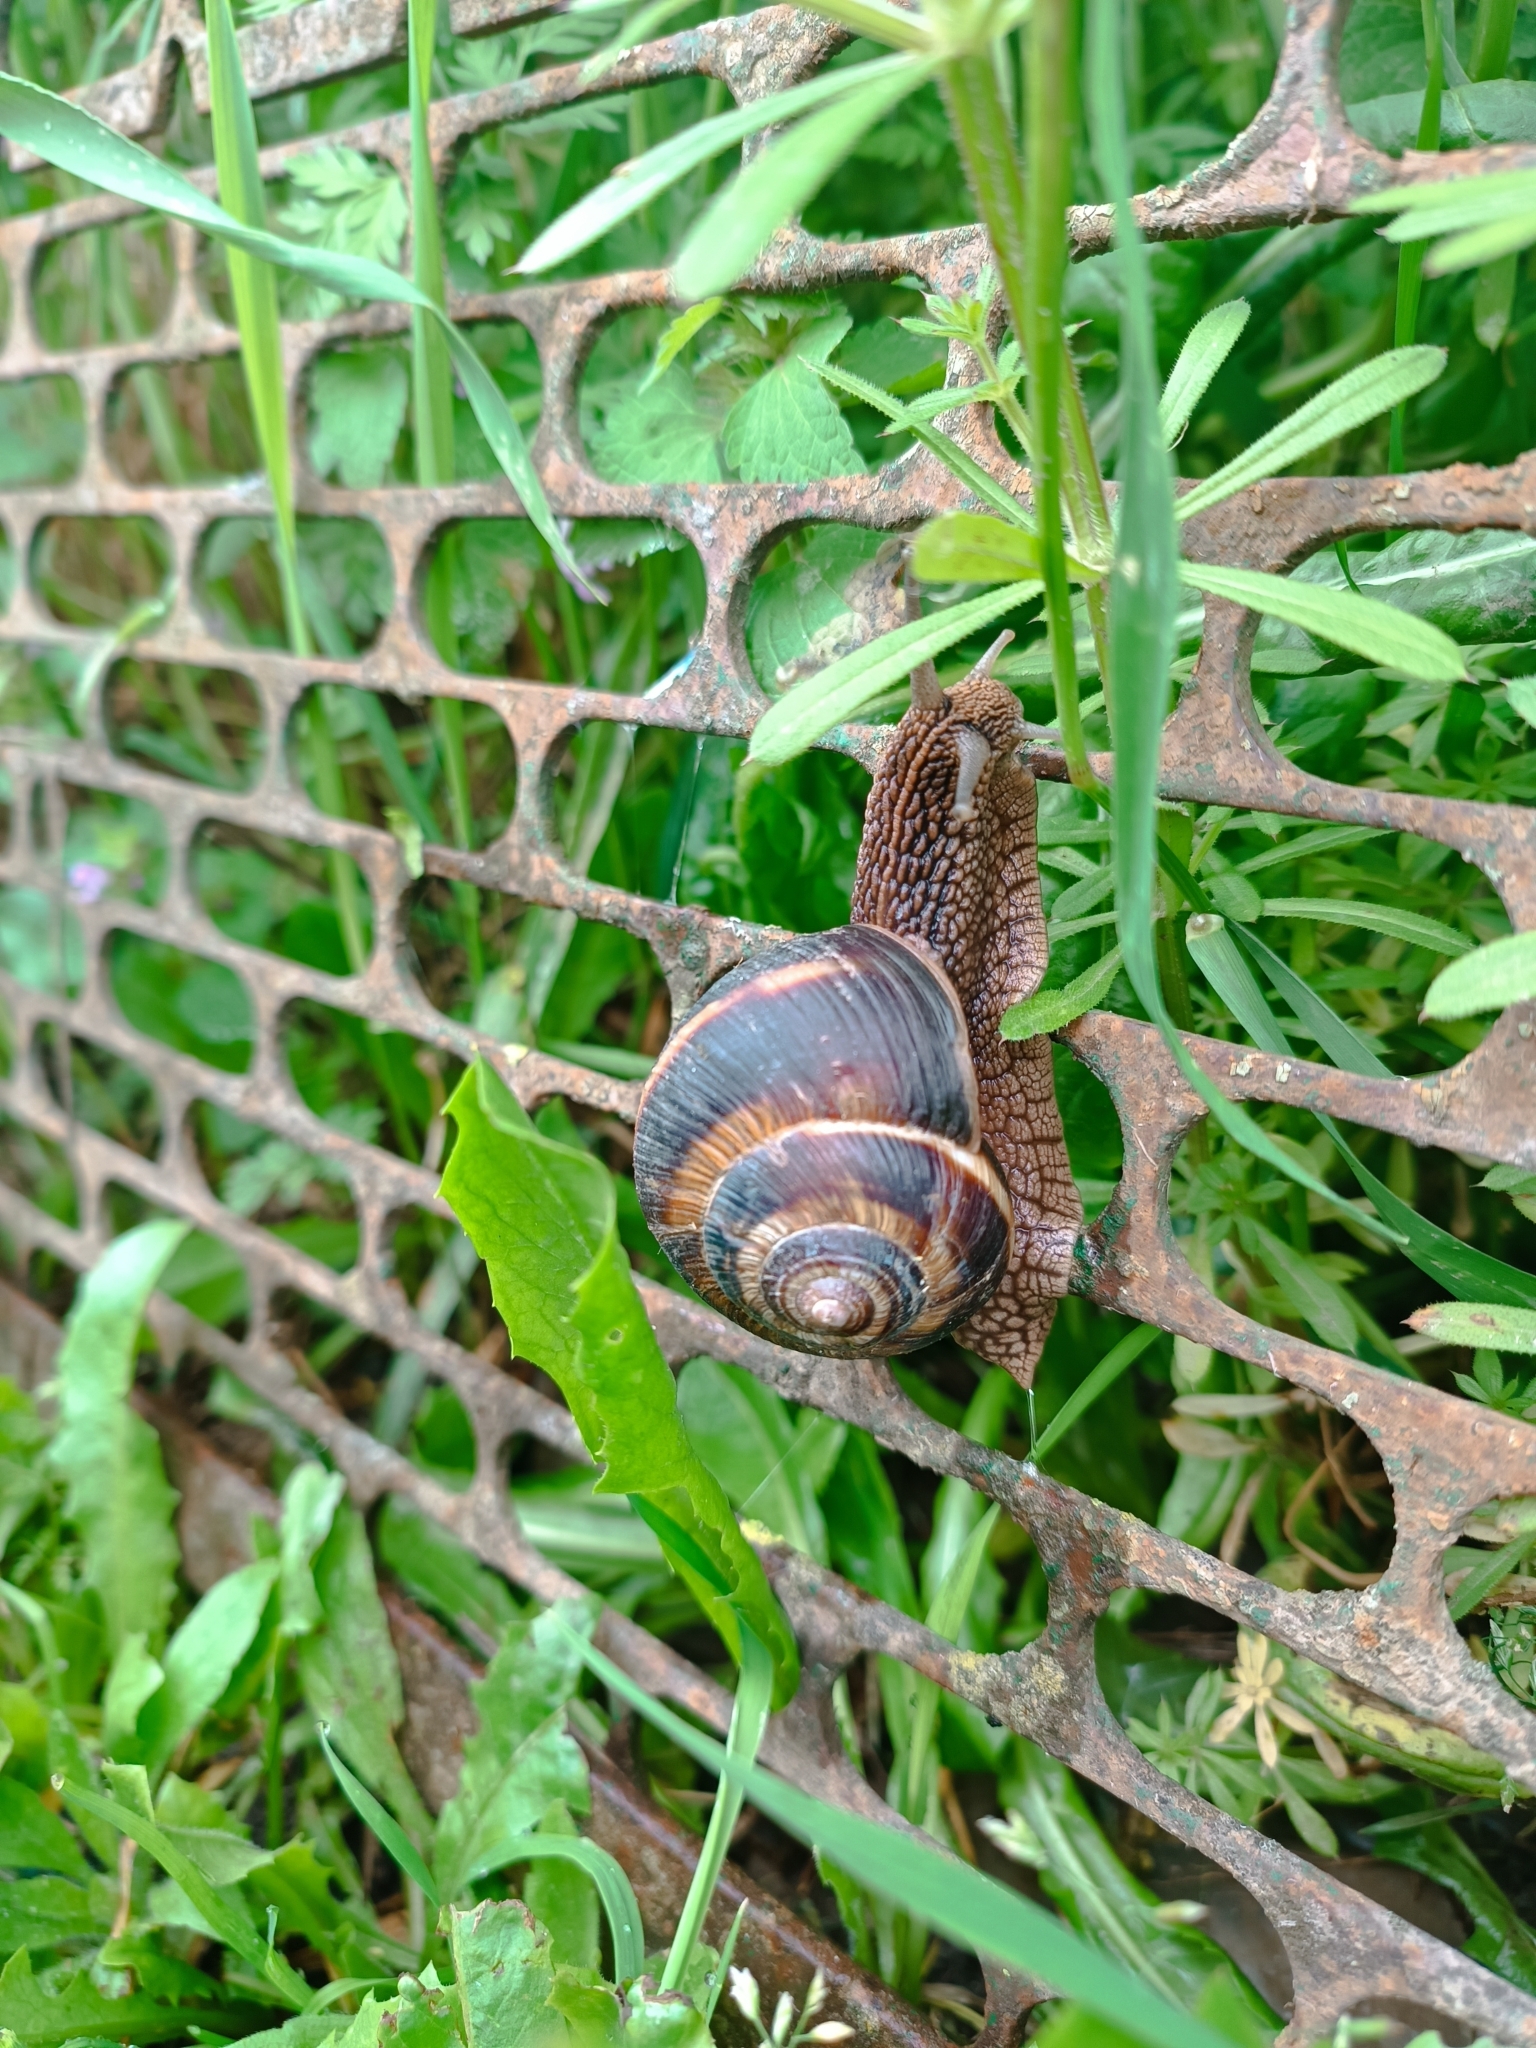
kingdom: Animalia
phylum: Mollusca
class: Gastropoda
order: Stylommatophora
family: Helicidae
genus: Helix
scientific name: Helix lucorum
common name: Turkish snail
